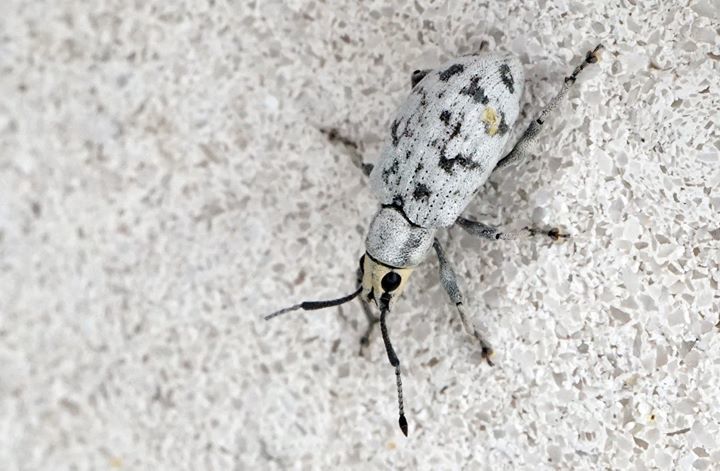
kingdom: Animalia
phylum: Arthropoda
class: Insecta
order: Coleoptera
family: Curculionidae
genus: Myllocerus
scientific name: Myllocerus undecimpustulatus
